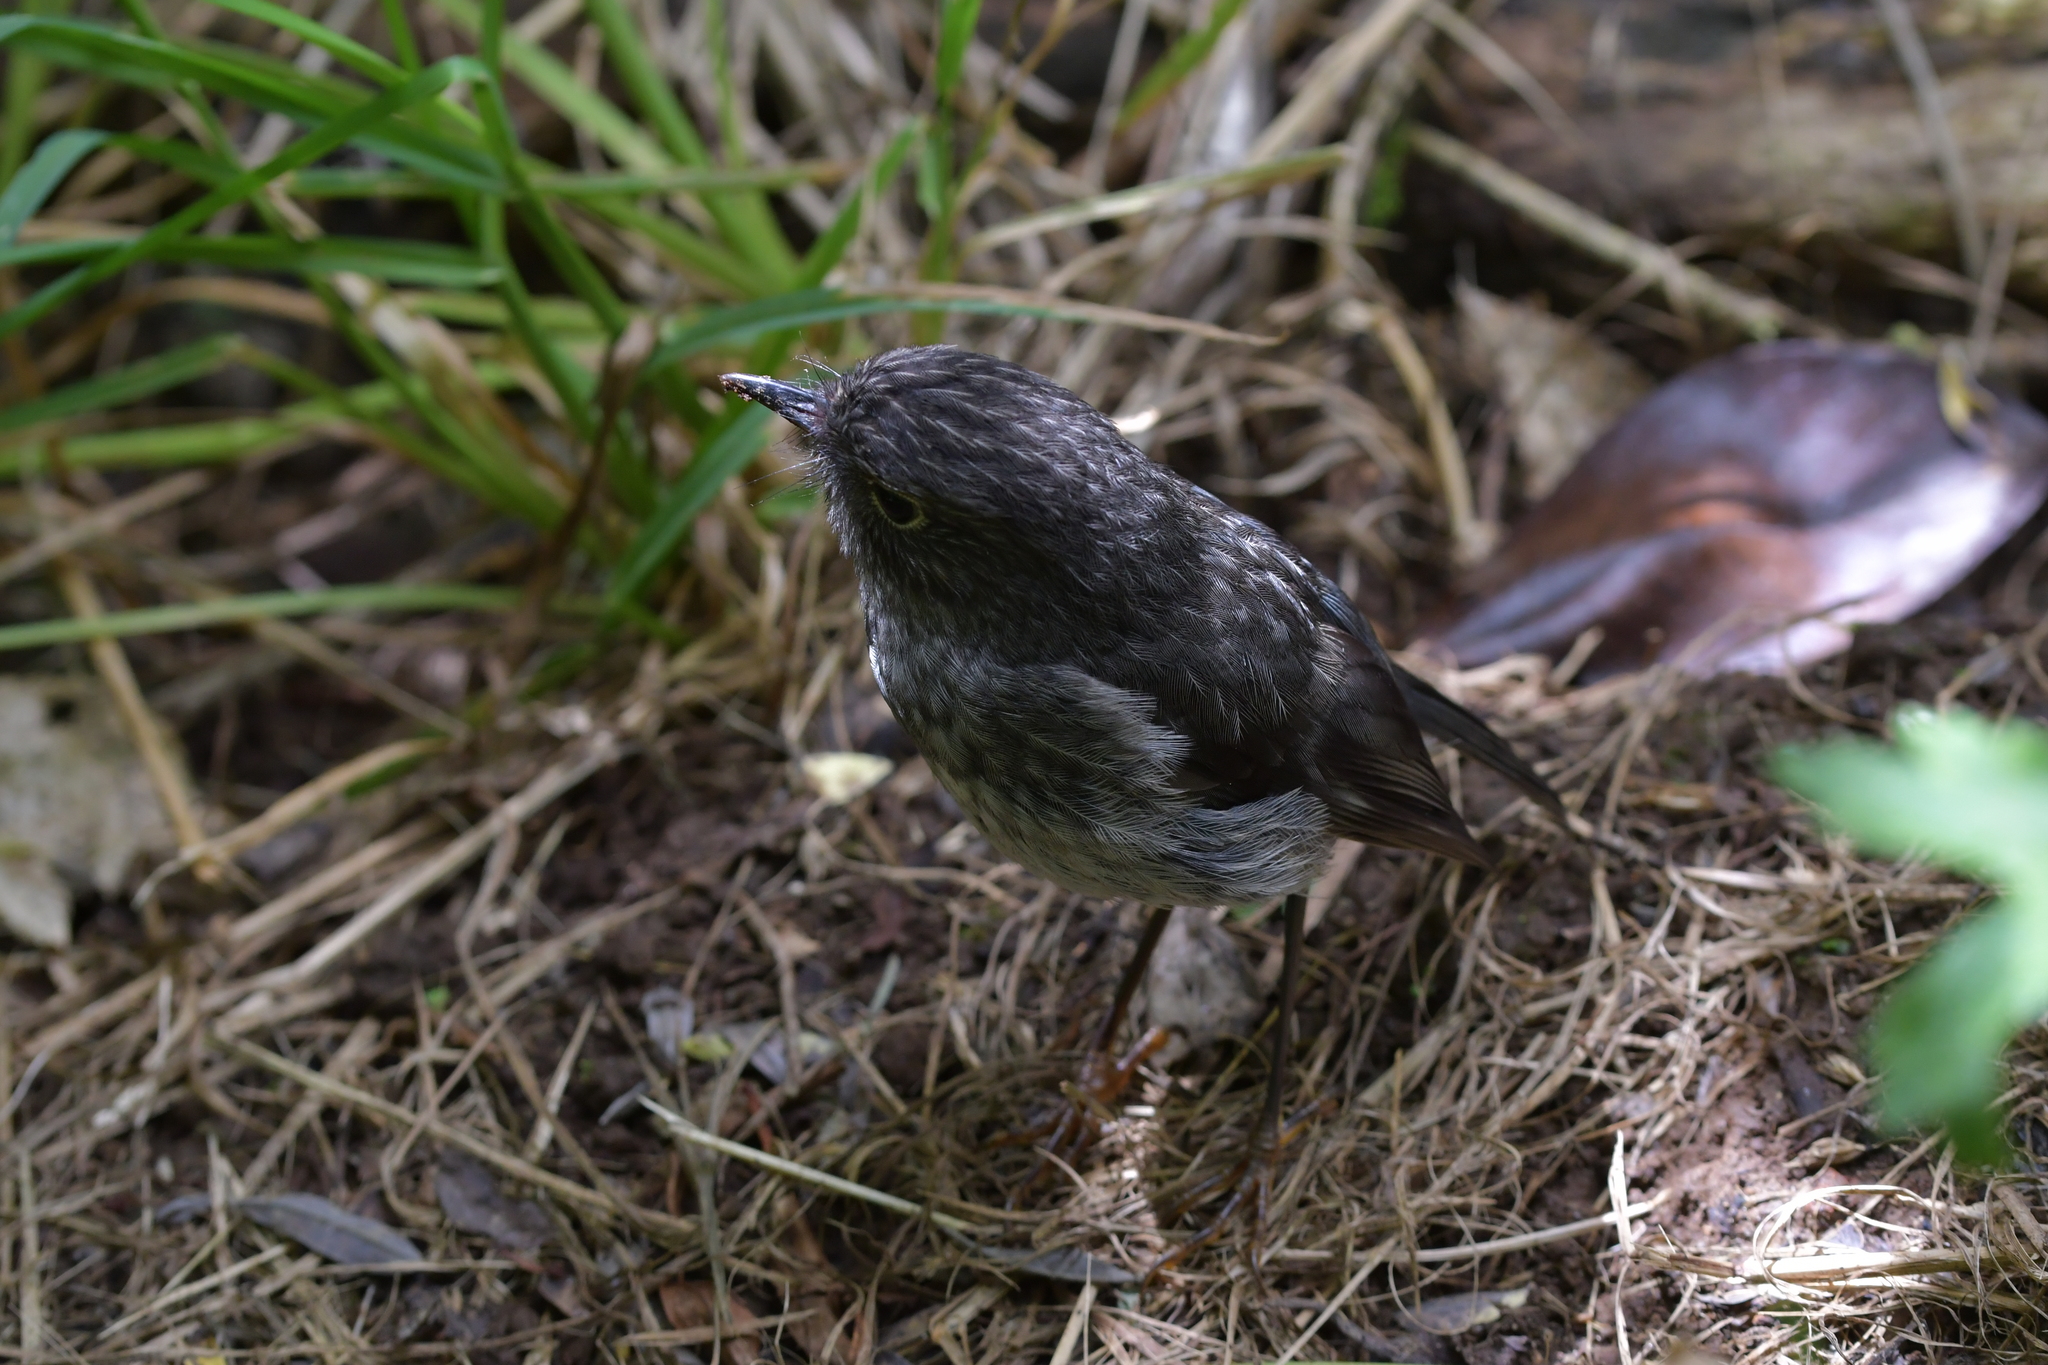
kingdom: Animalia
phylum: Chordata
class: Aves
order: Passeriformes
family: Petroicidae
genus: Petroica
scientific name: Petroica australis
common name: New zealand robin
